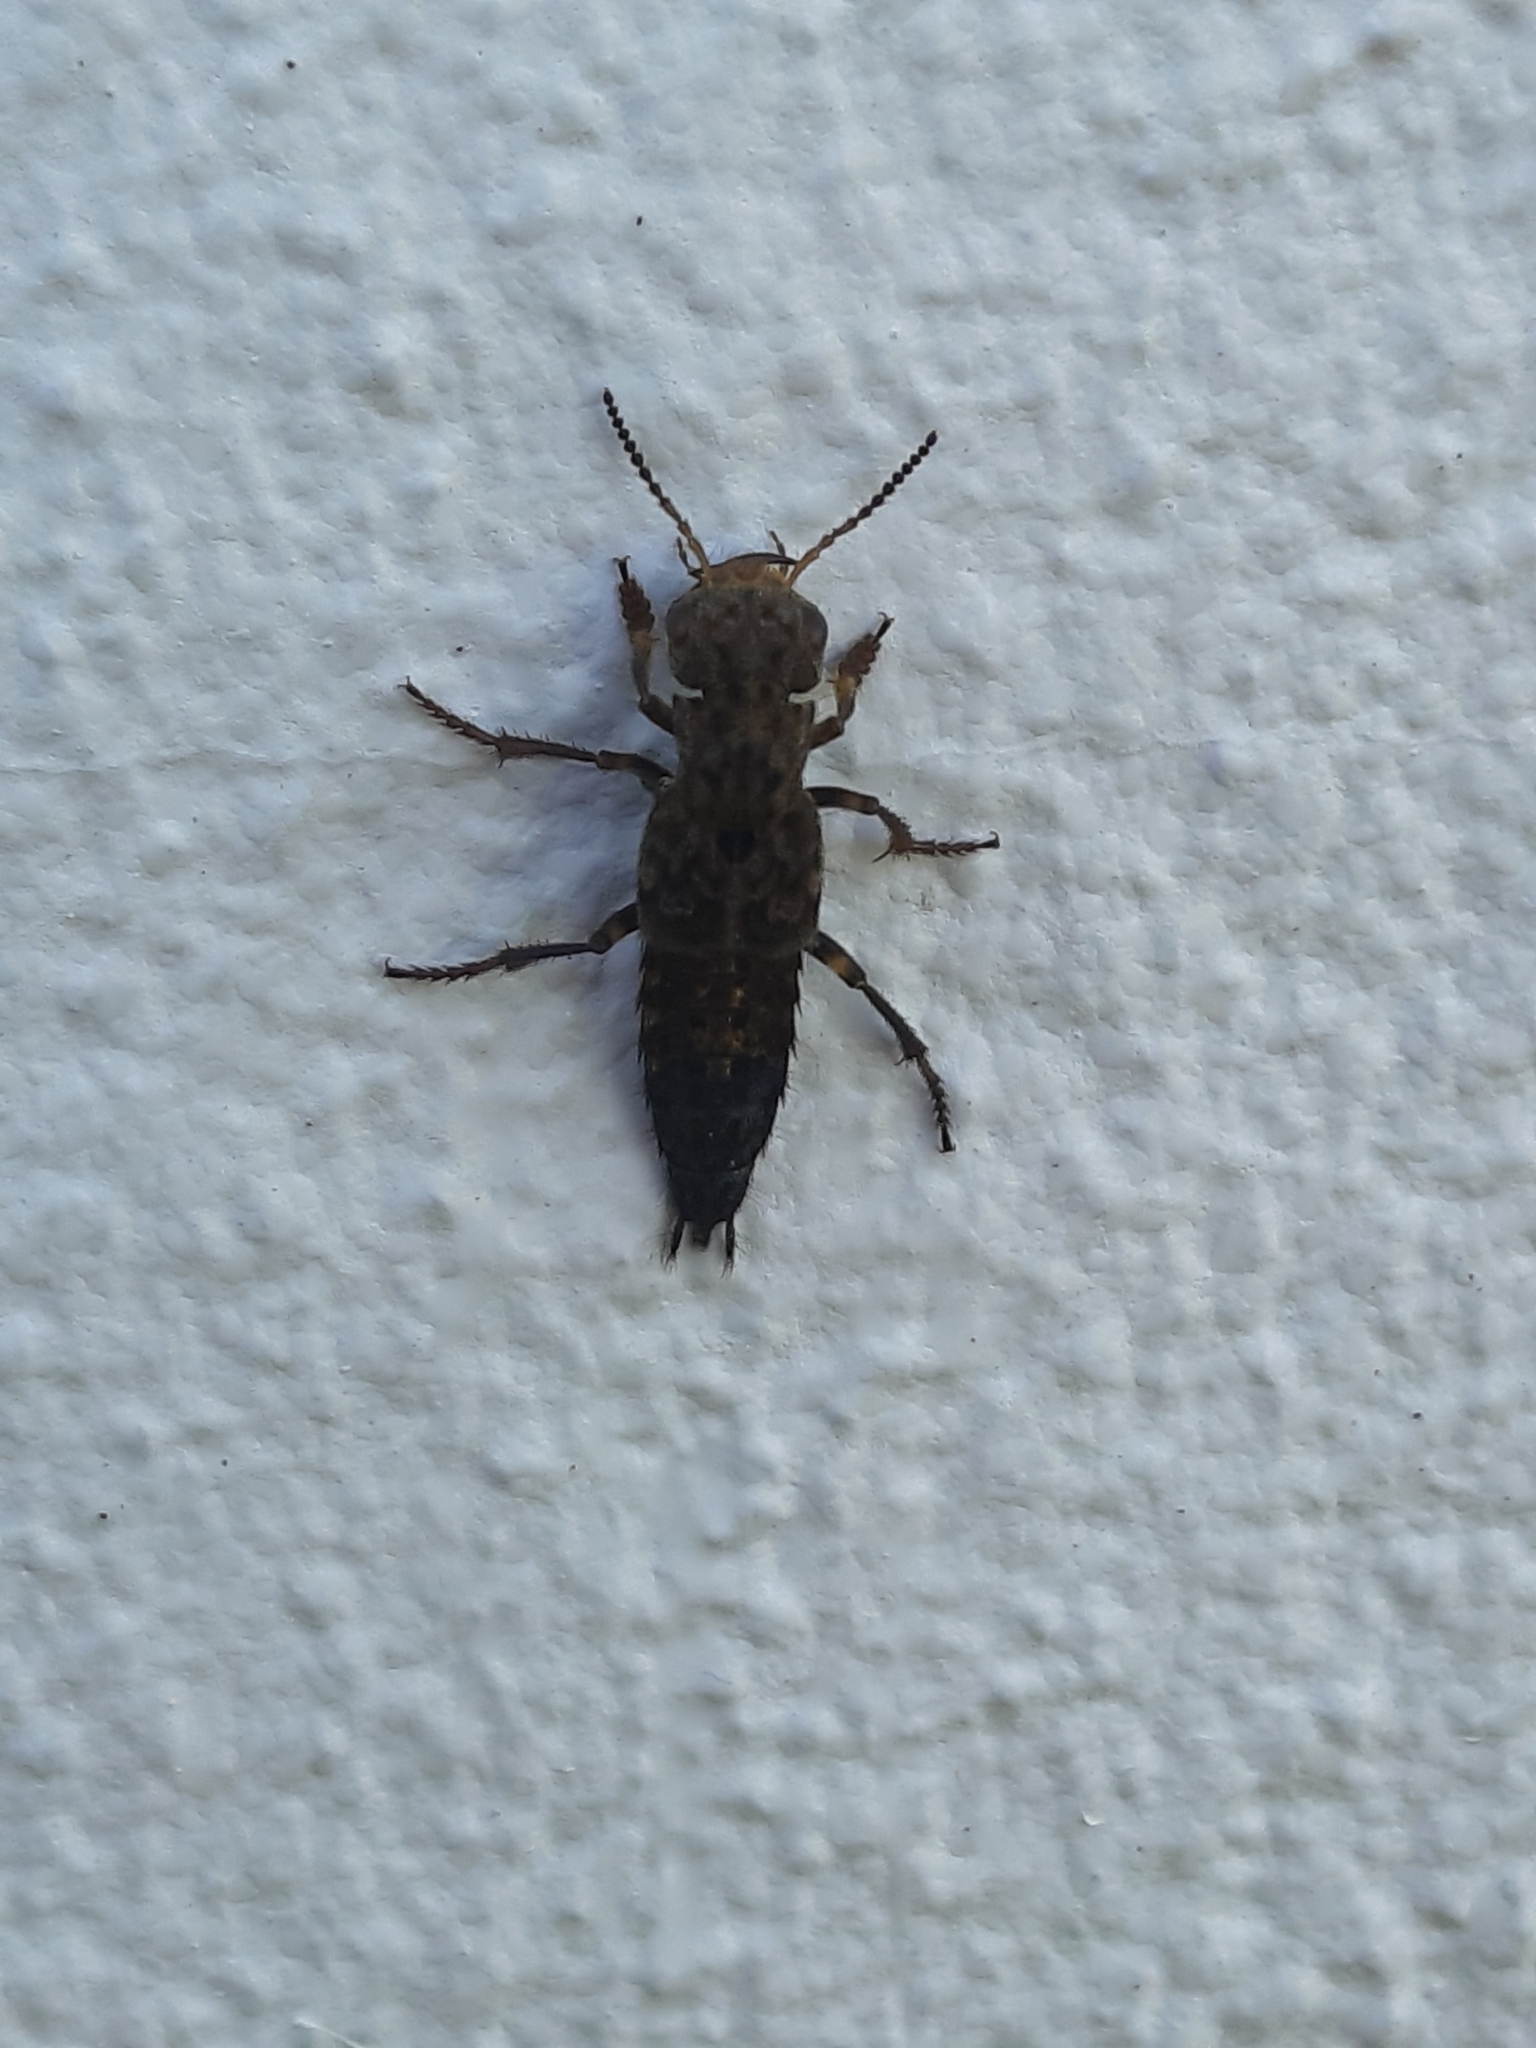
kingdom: Animalia
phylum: Arthropoda
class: Insecta
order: Coleoptera
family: Staphylinidae
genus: Ontholestes
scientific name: Ontholestes tessellatus
